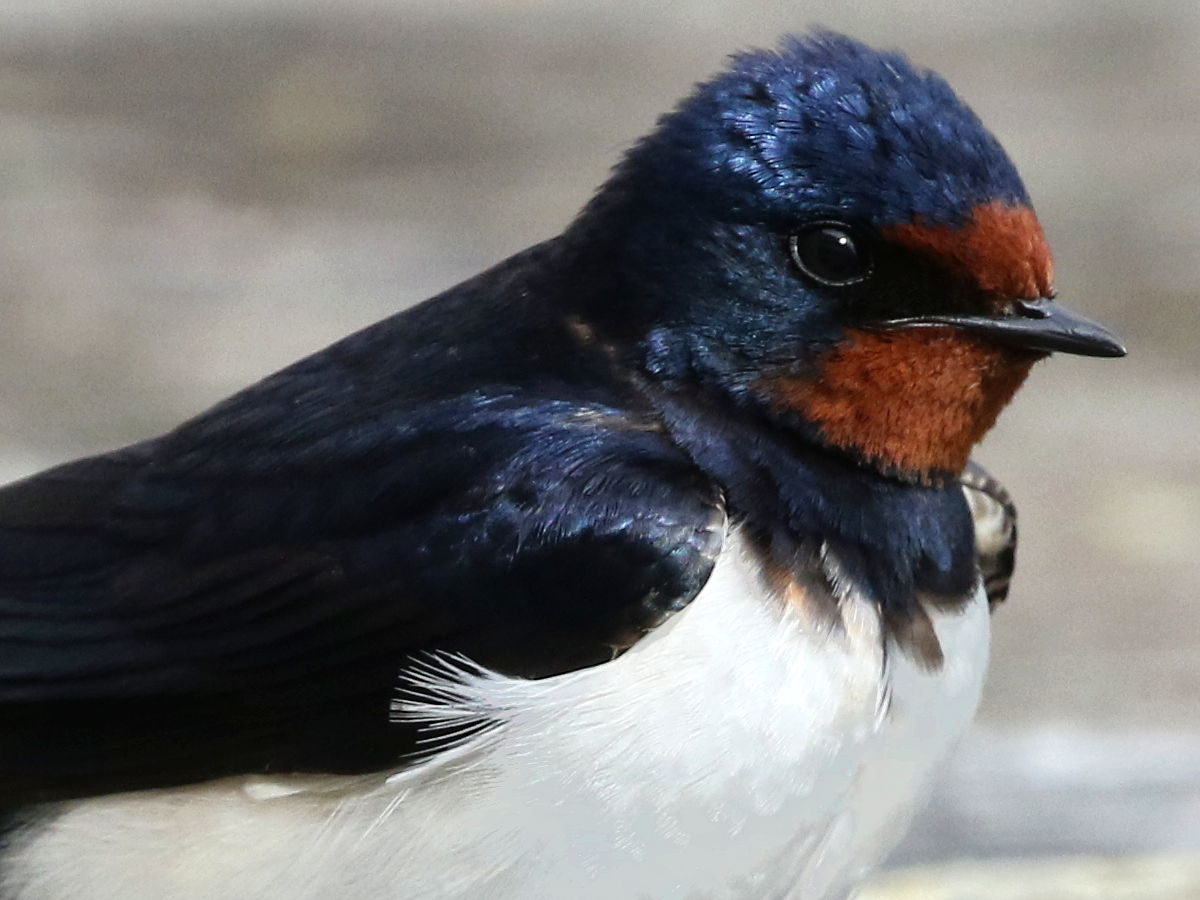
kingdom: Animalia
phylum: Chordata
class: Aves
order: Passeriformes
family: Hirundinidae
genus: Hirundo
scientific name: Hirundo rustica
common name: Barn swallow
